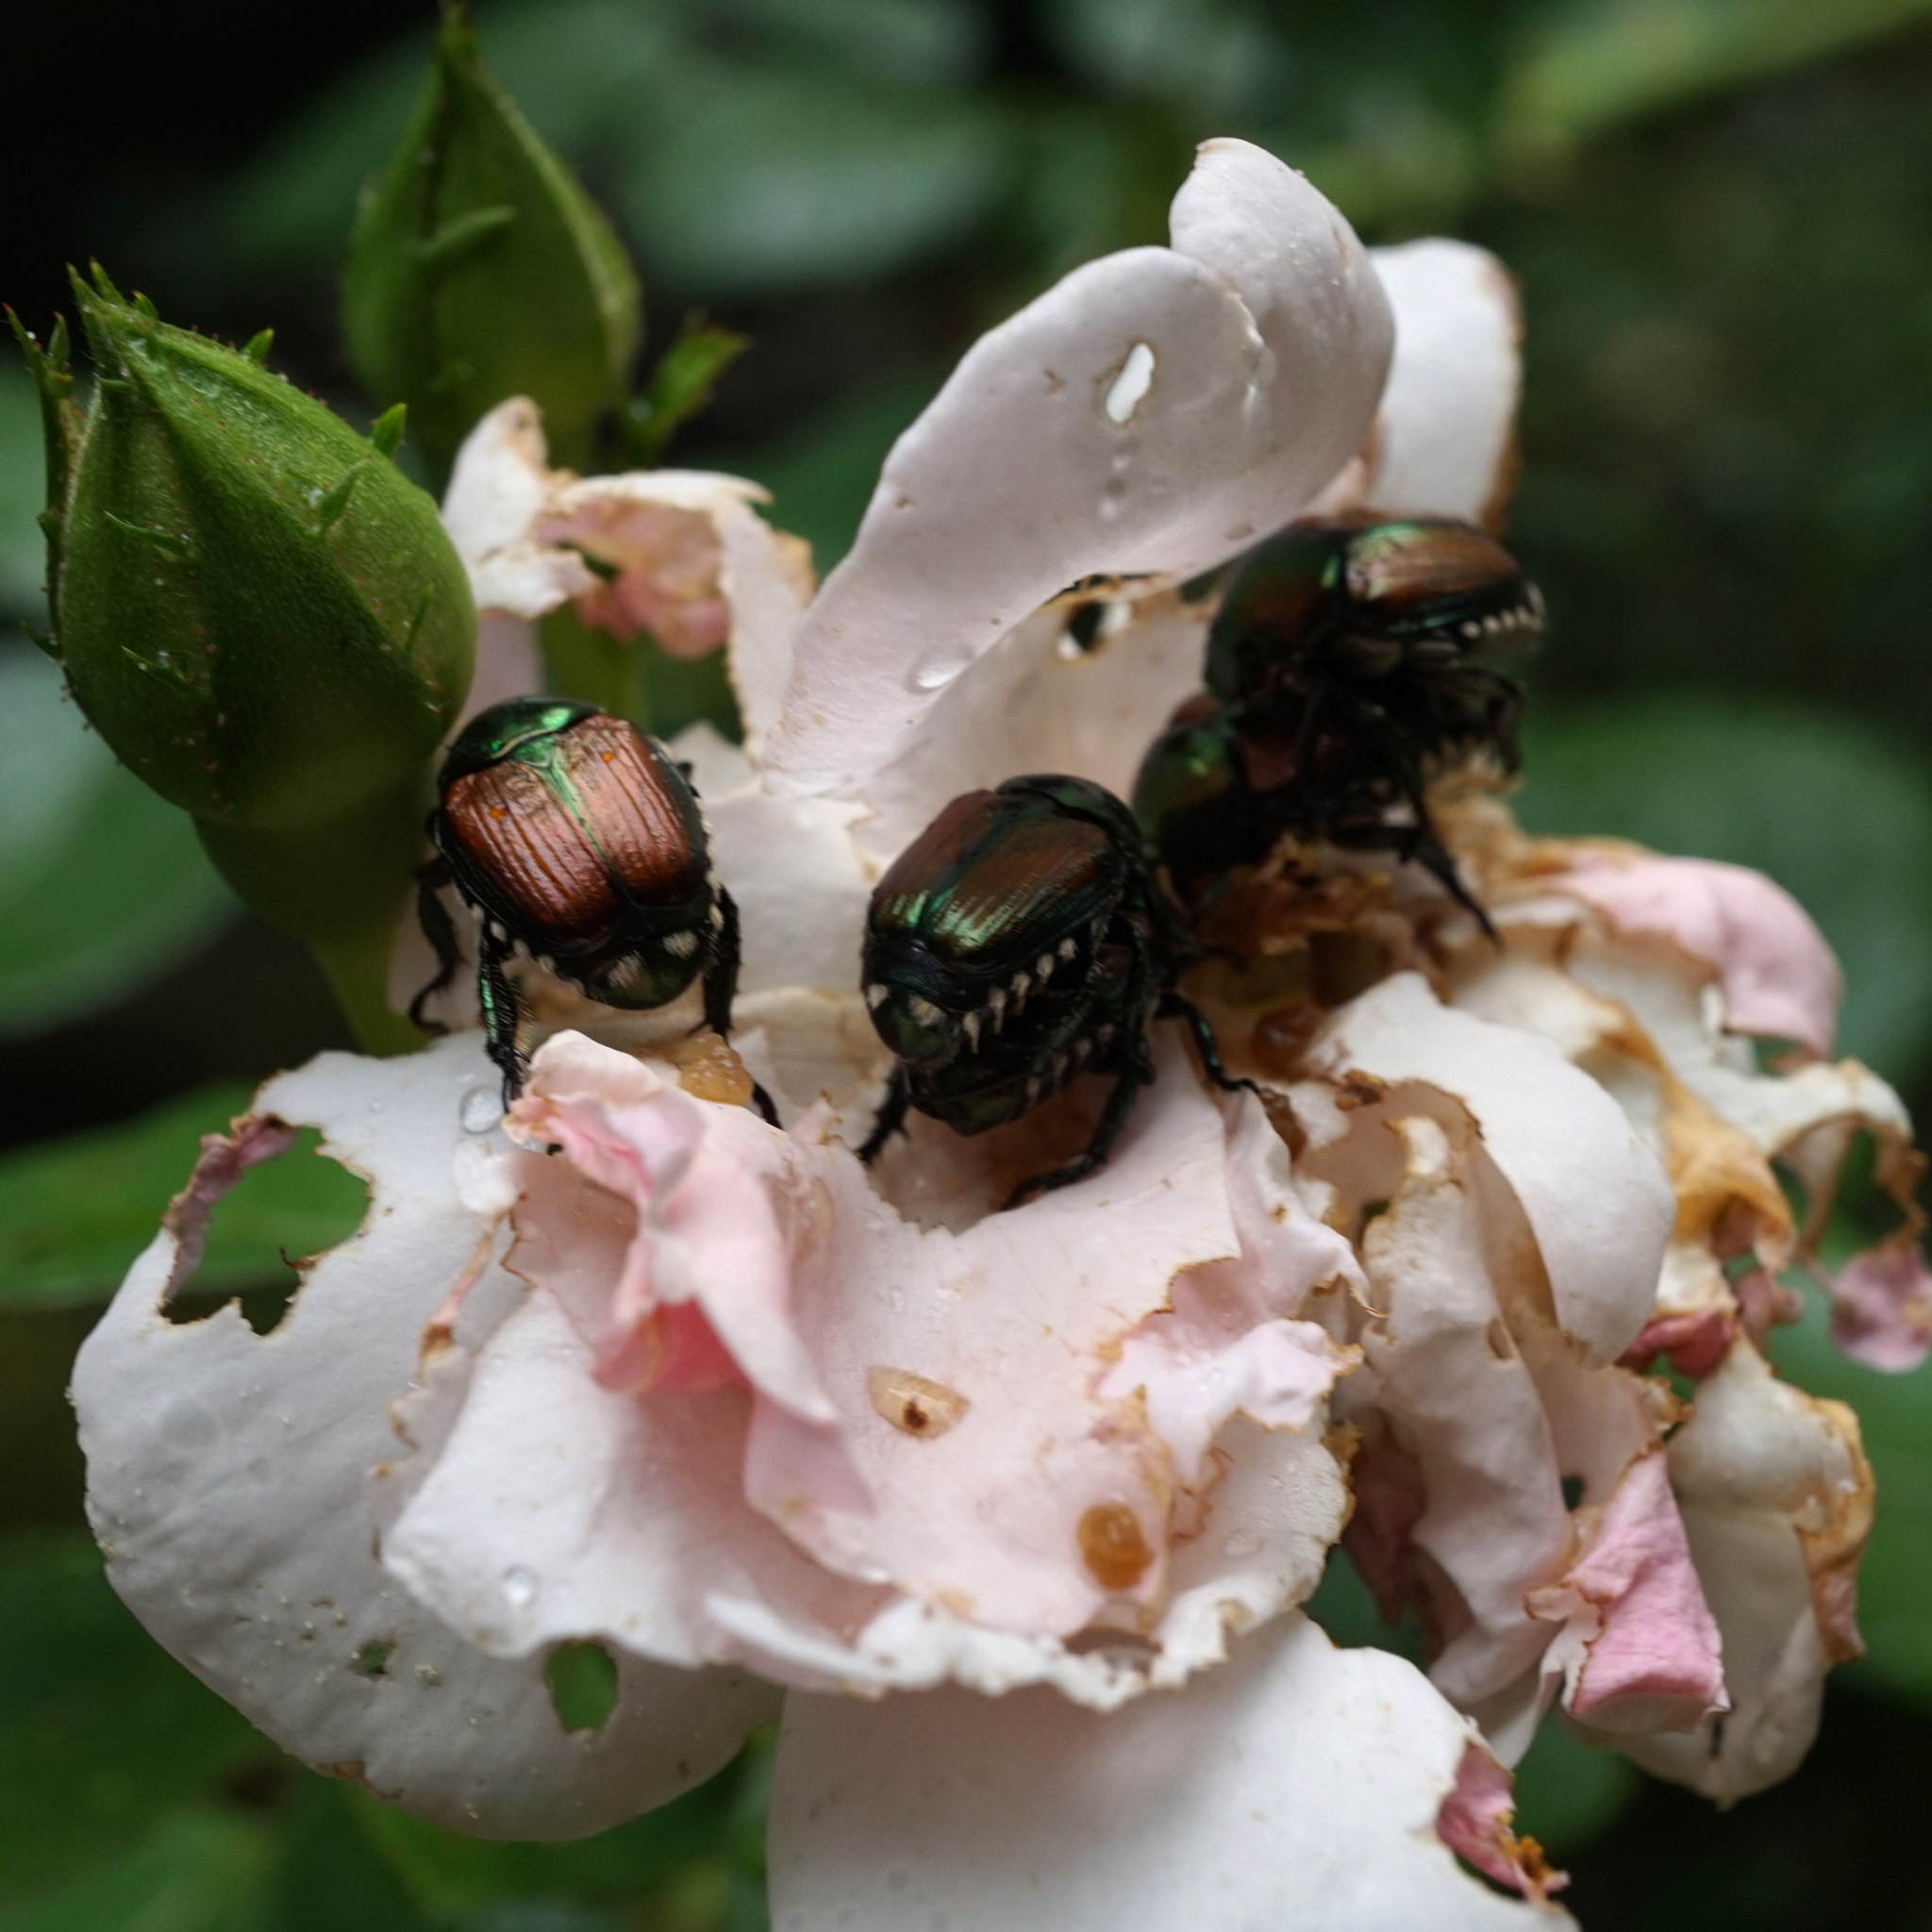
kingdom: Animalia
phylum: Arthropoda
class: Insecta
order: Coleoptera
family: Scarabaeidae
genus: Popillia
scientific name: Popillia japonica
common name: Japanese beetle
